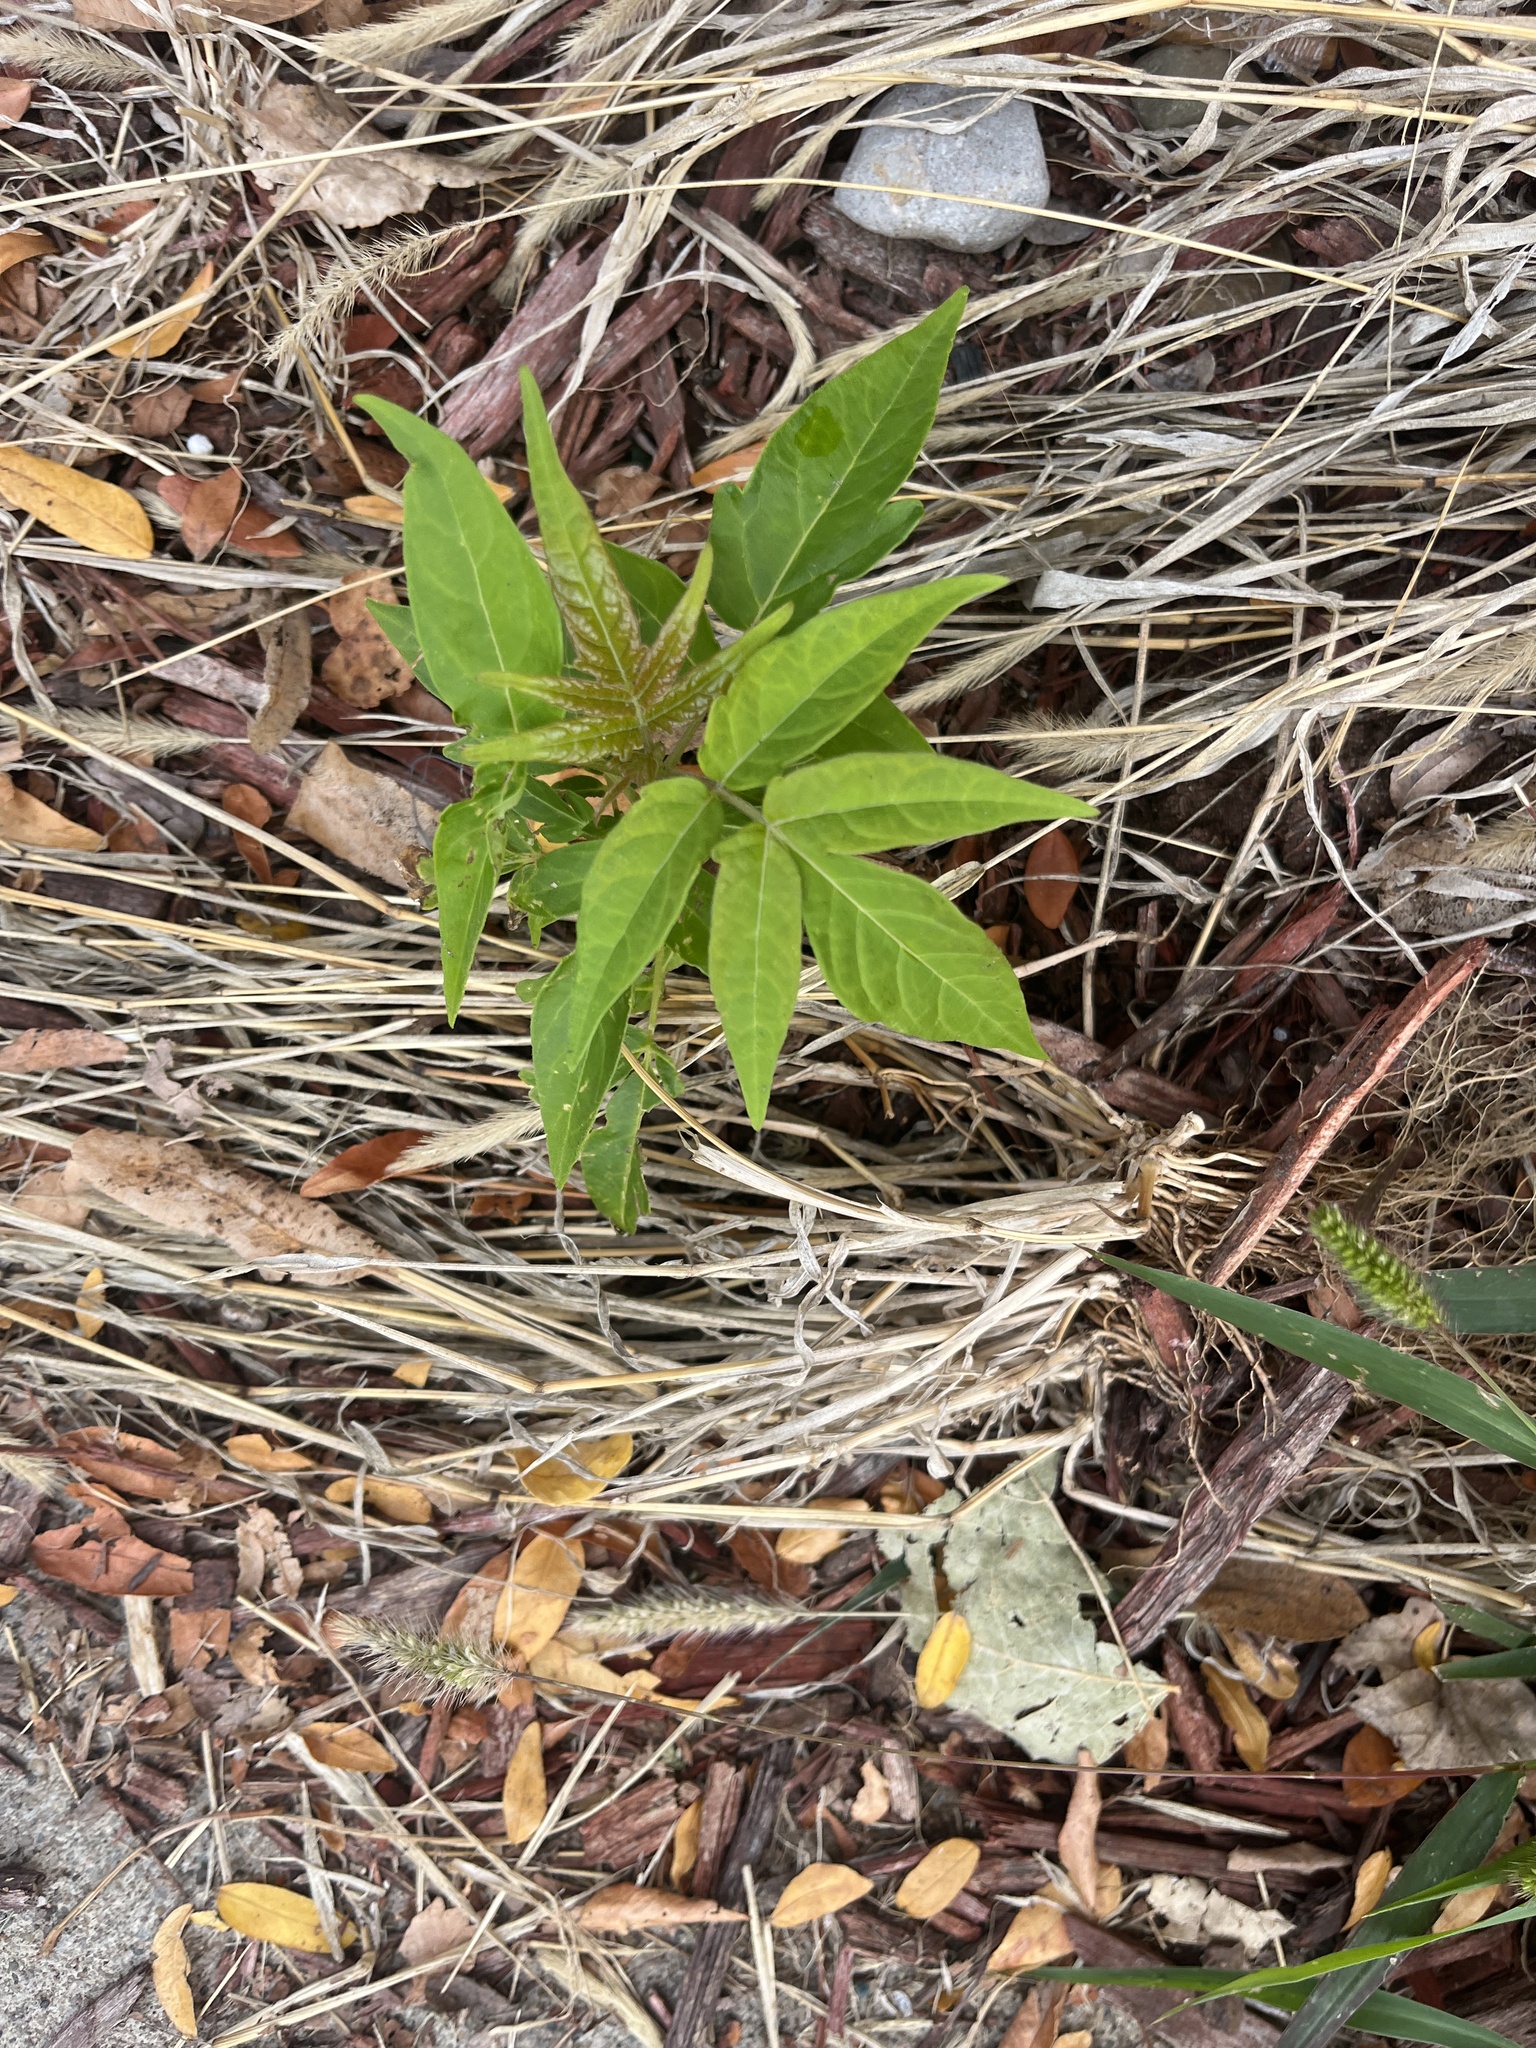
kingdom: Plantae
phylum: Tracheophyta
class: Magnoliopsida
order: Sapindales
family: Simaroubaceae
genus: Ailanthus
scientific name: Ailanthus altissima
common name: Tree-of-heaven
